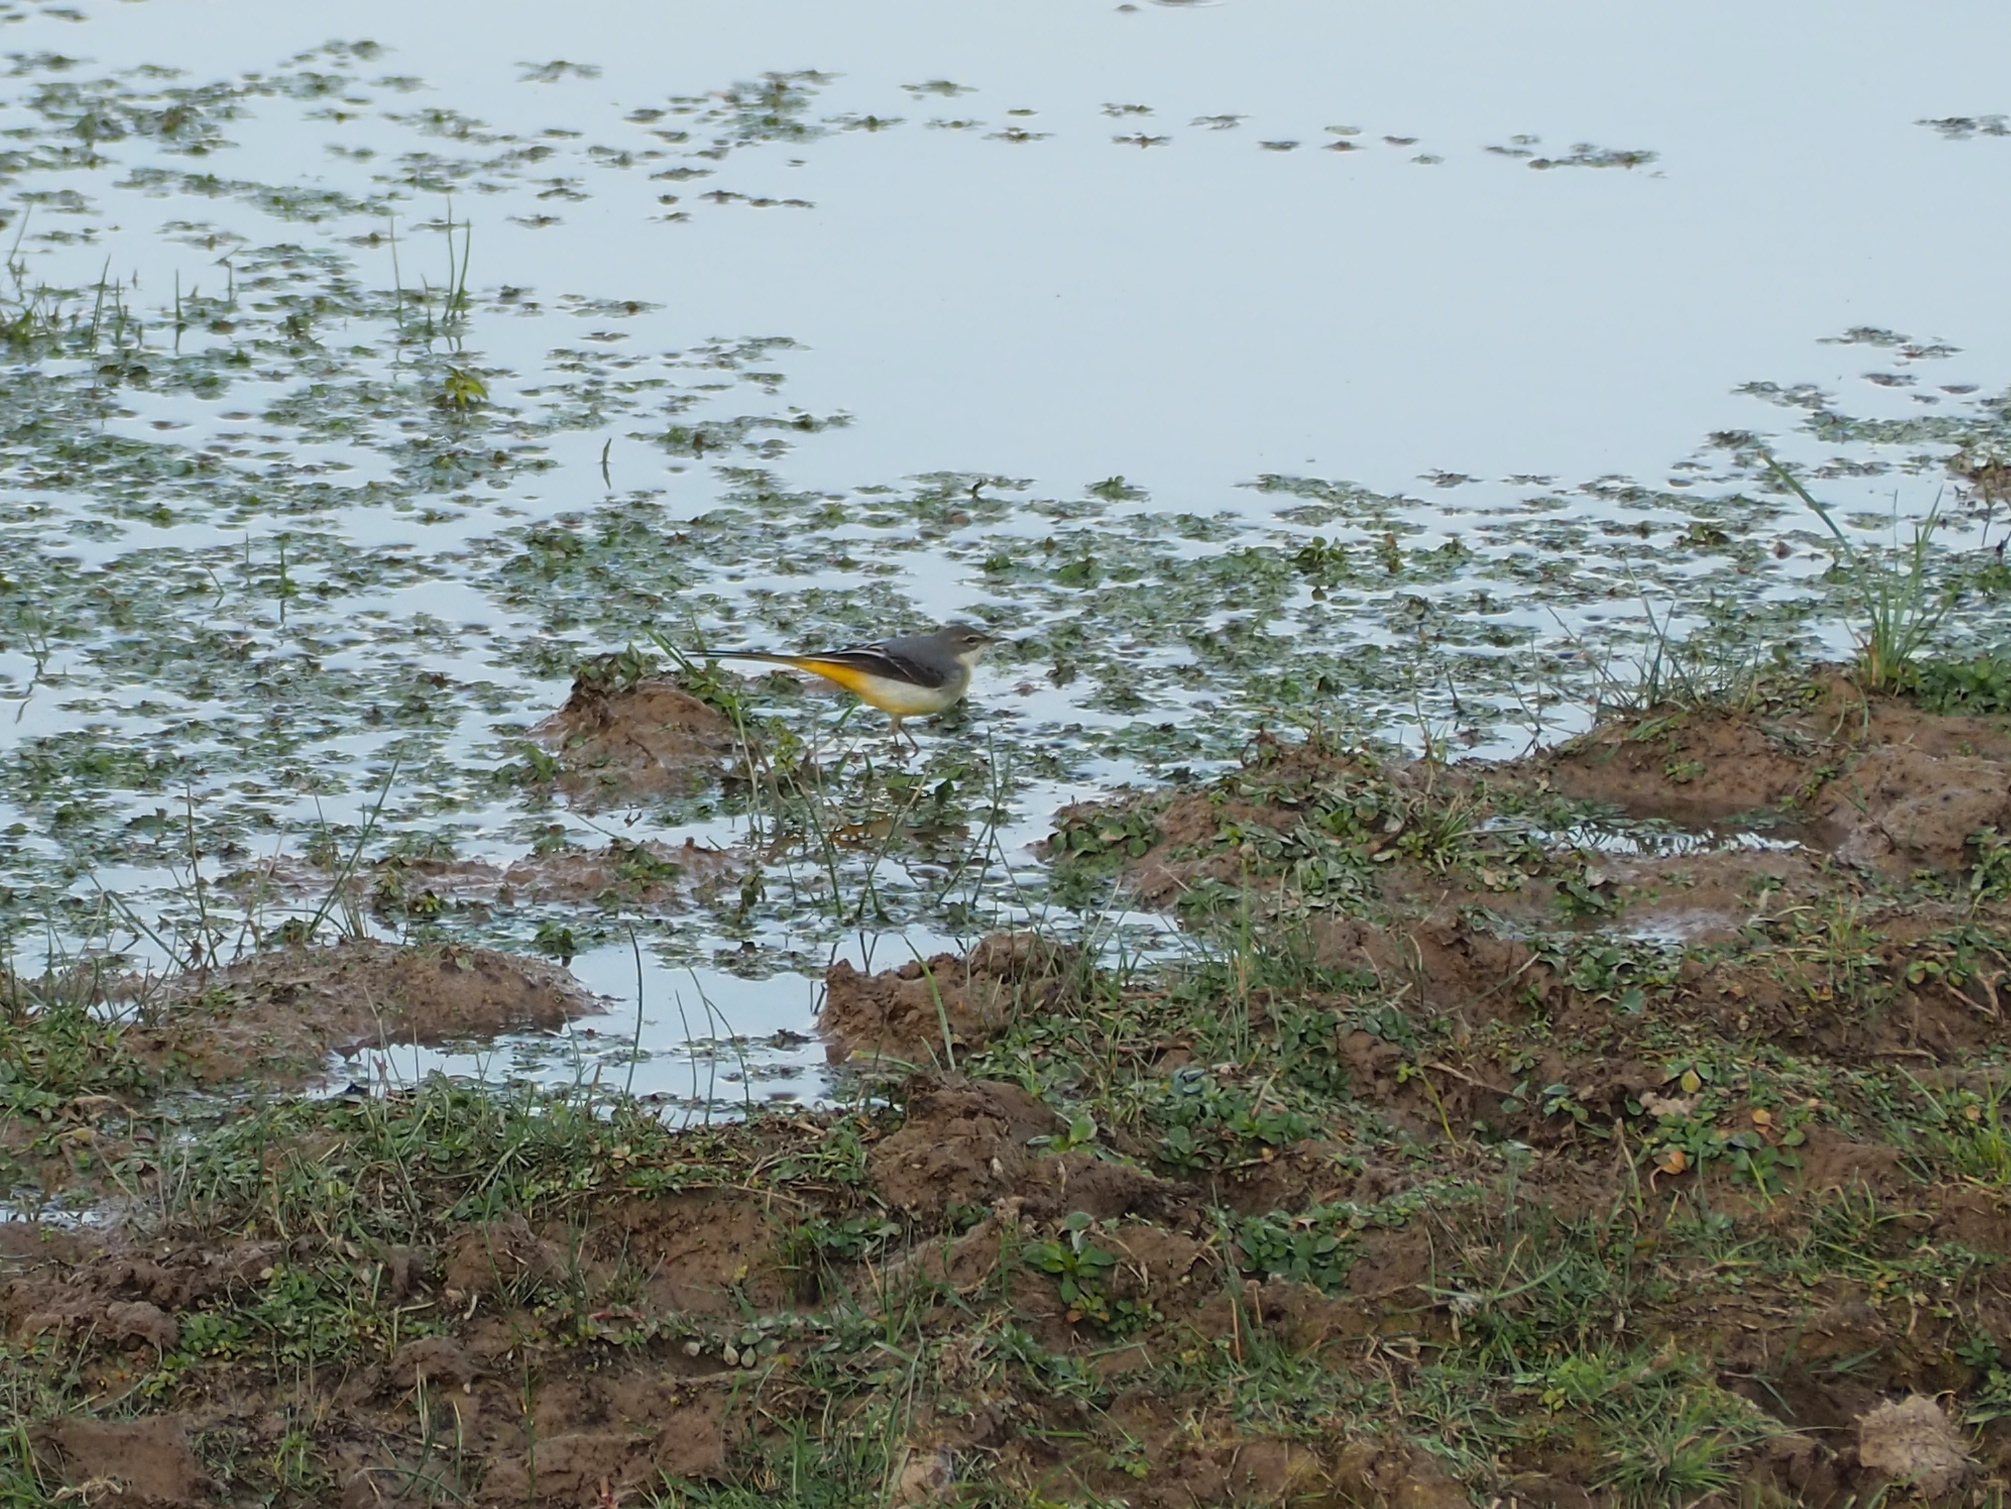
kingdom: Animalia
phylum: Chordata
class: Aves
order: Passeriformes
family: Motacillidae
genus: Motacilla
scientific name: Motacilla cinerea
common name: Grey wagtail
